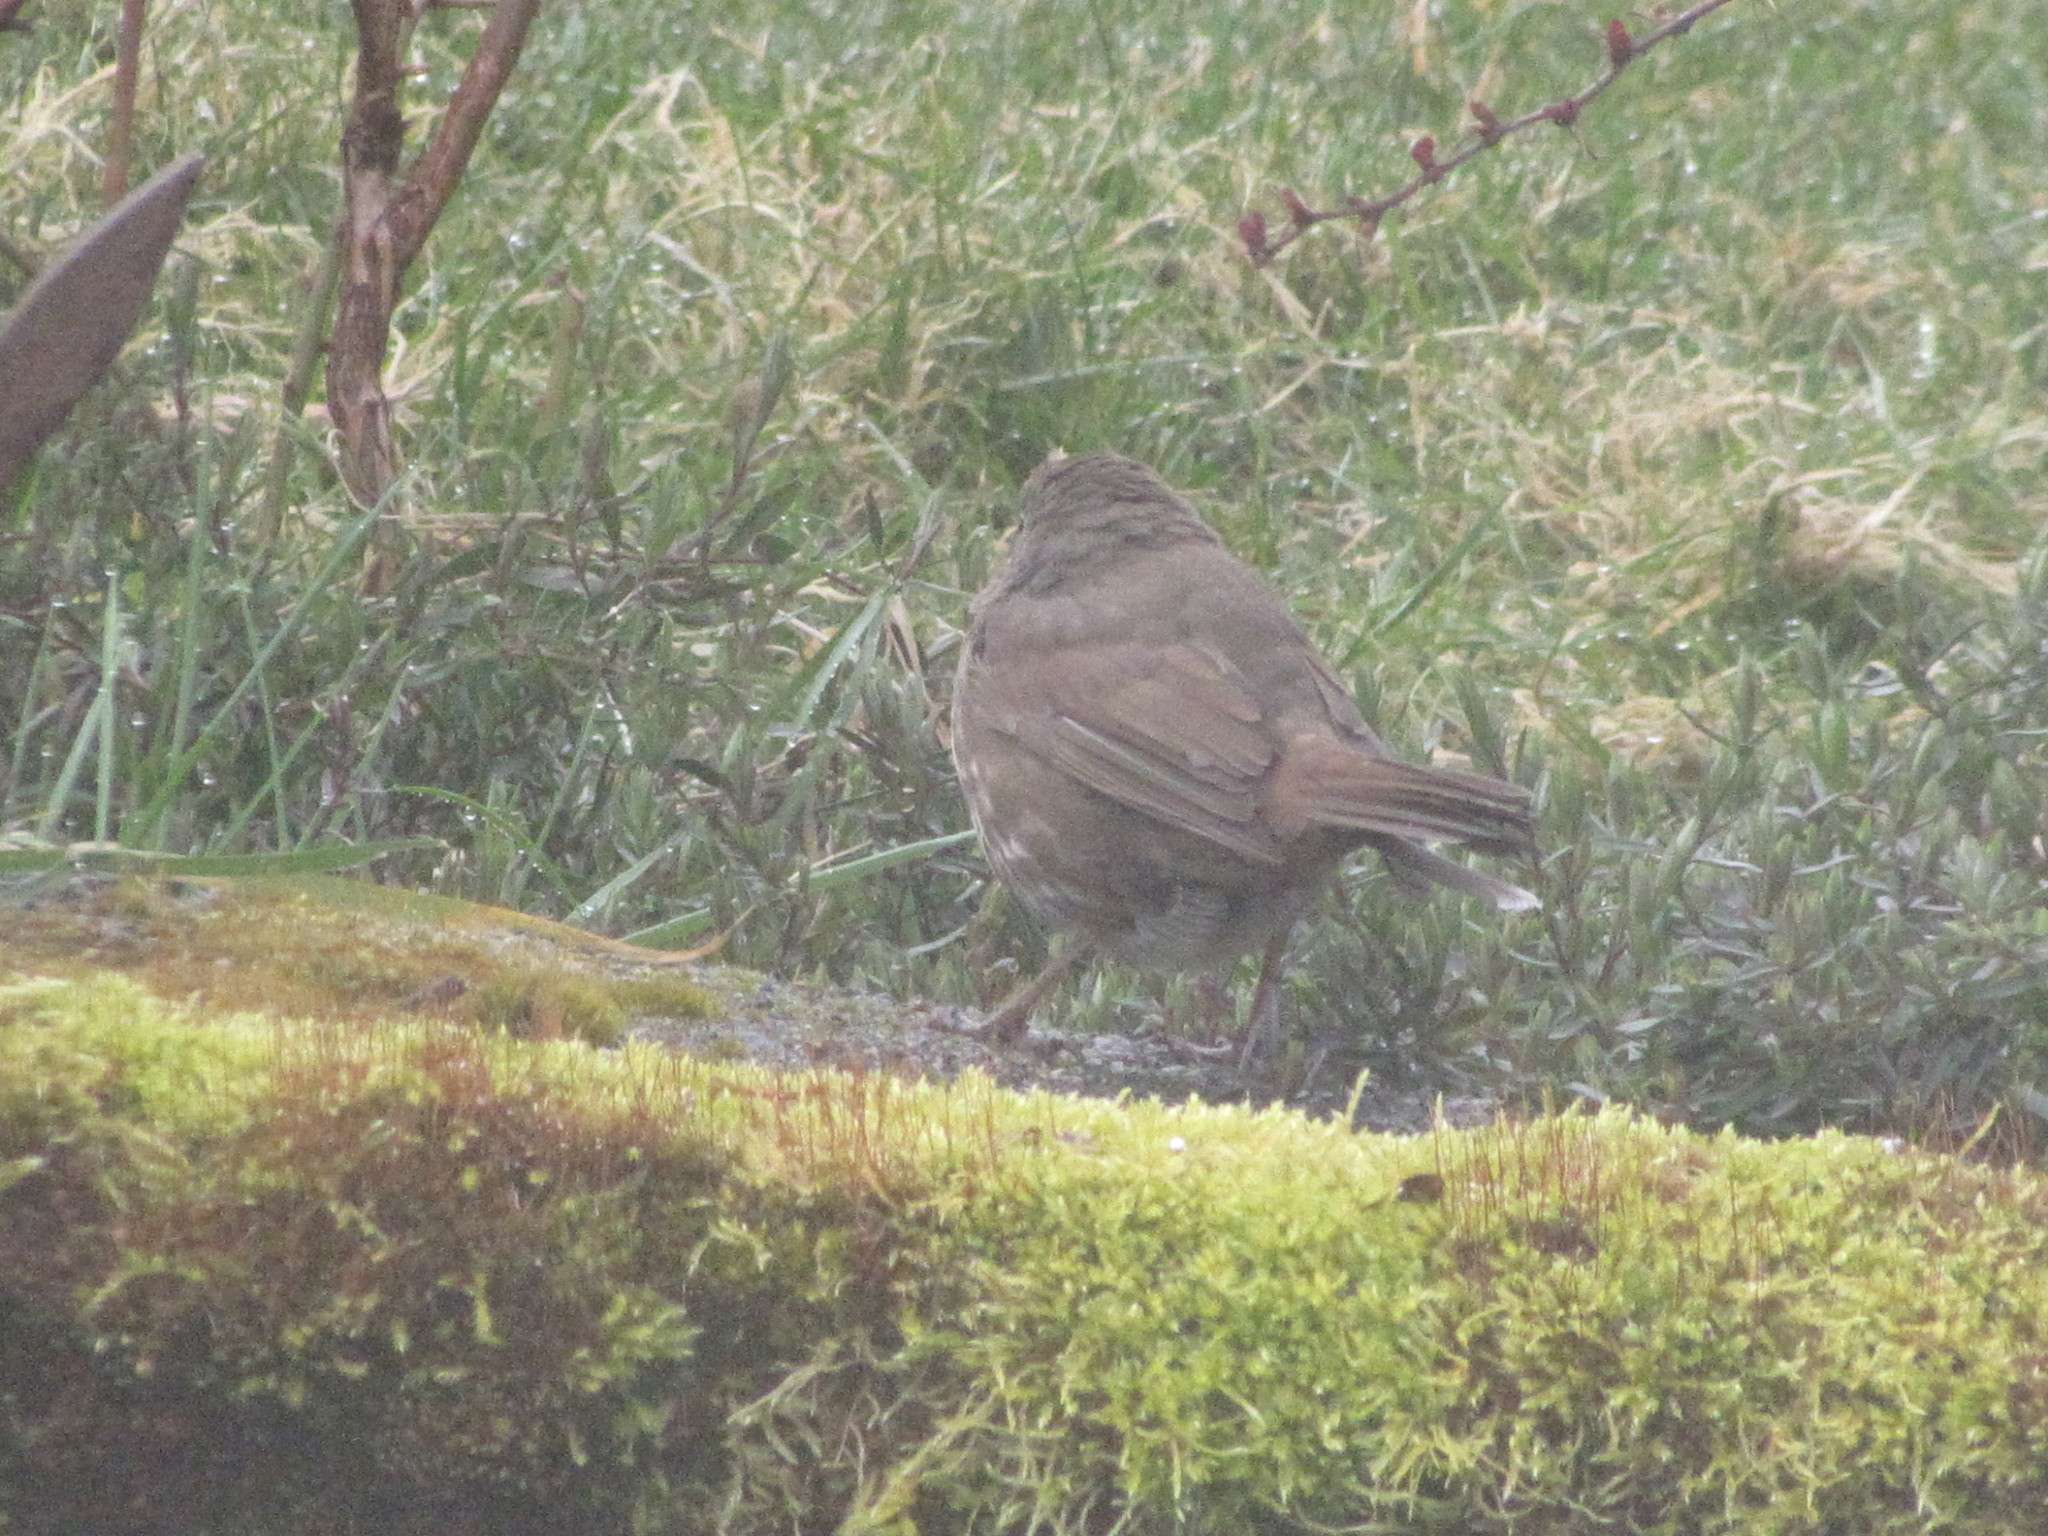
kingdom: Animalia
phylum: Chordata
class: Aves
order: Passeriformes
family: Passerellidae
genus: Passerella
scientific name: Passerella iliaca
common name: Fox sparrow
